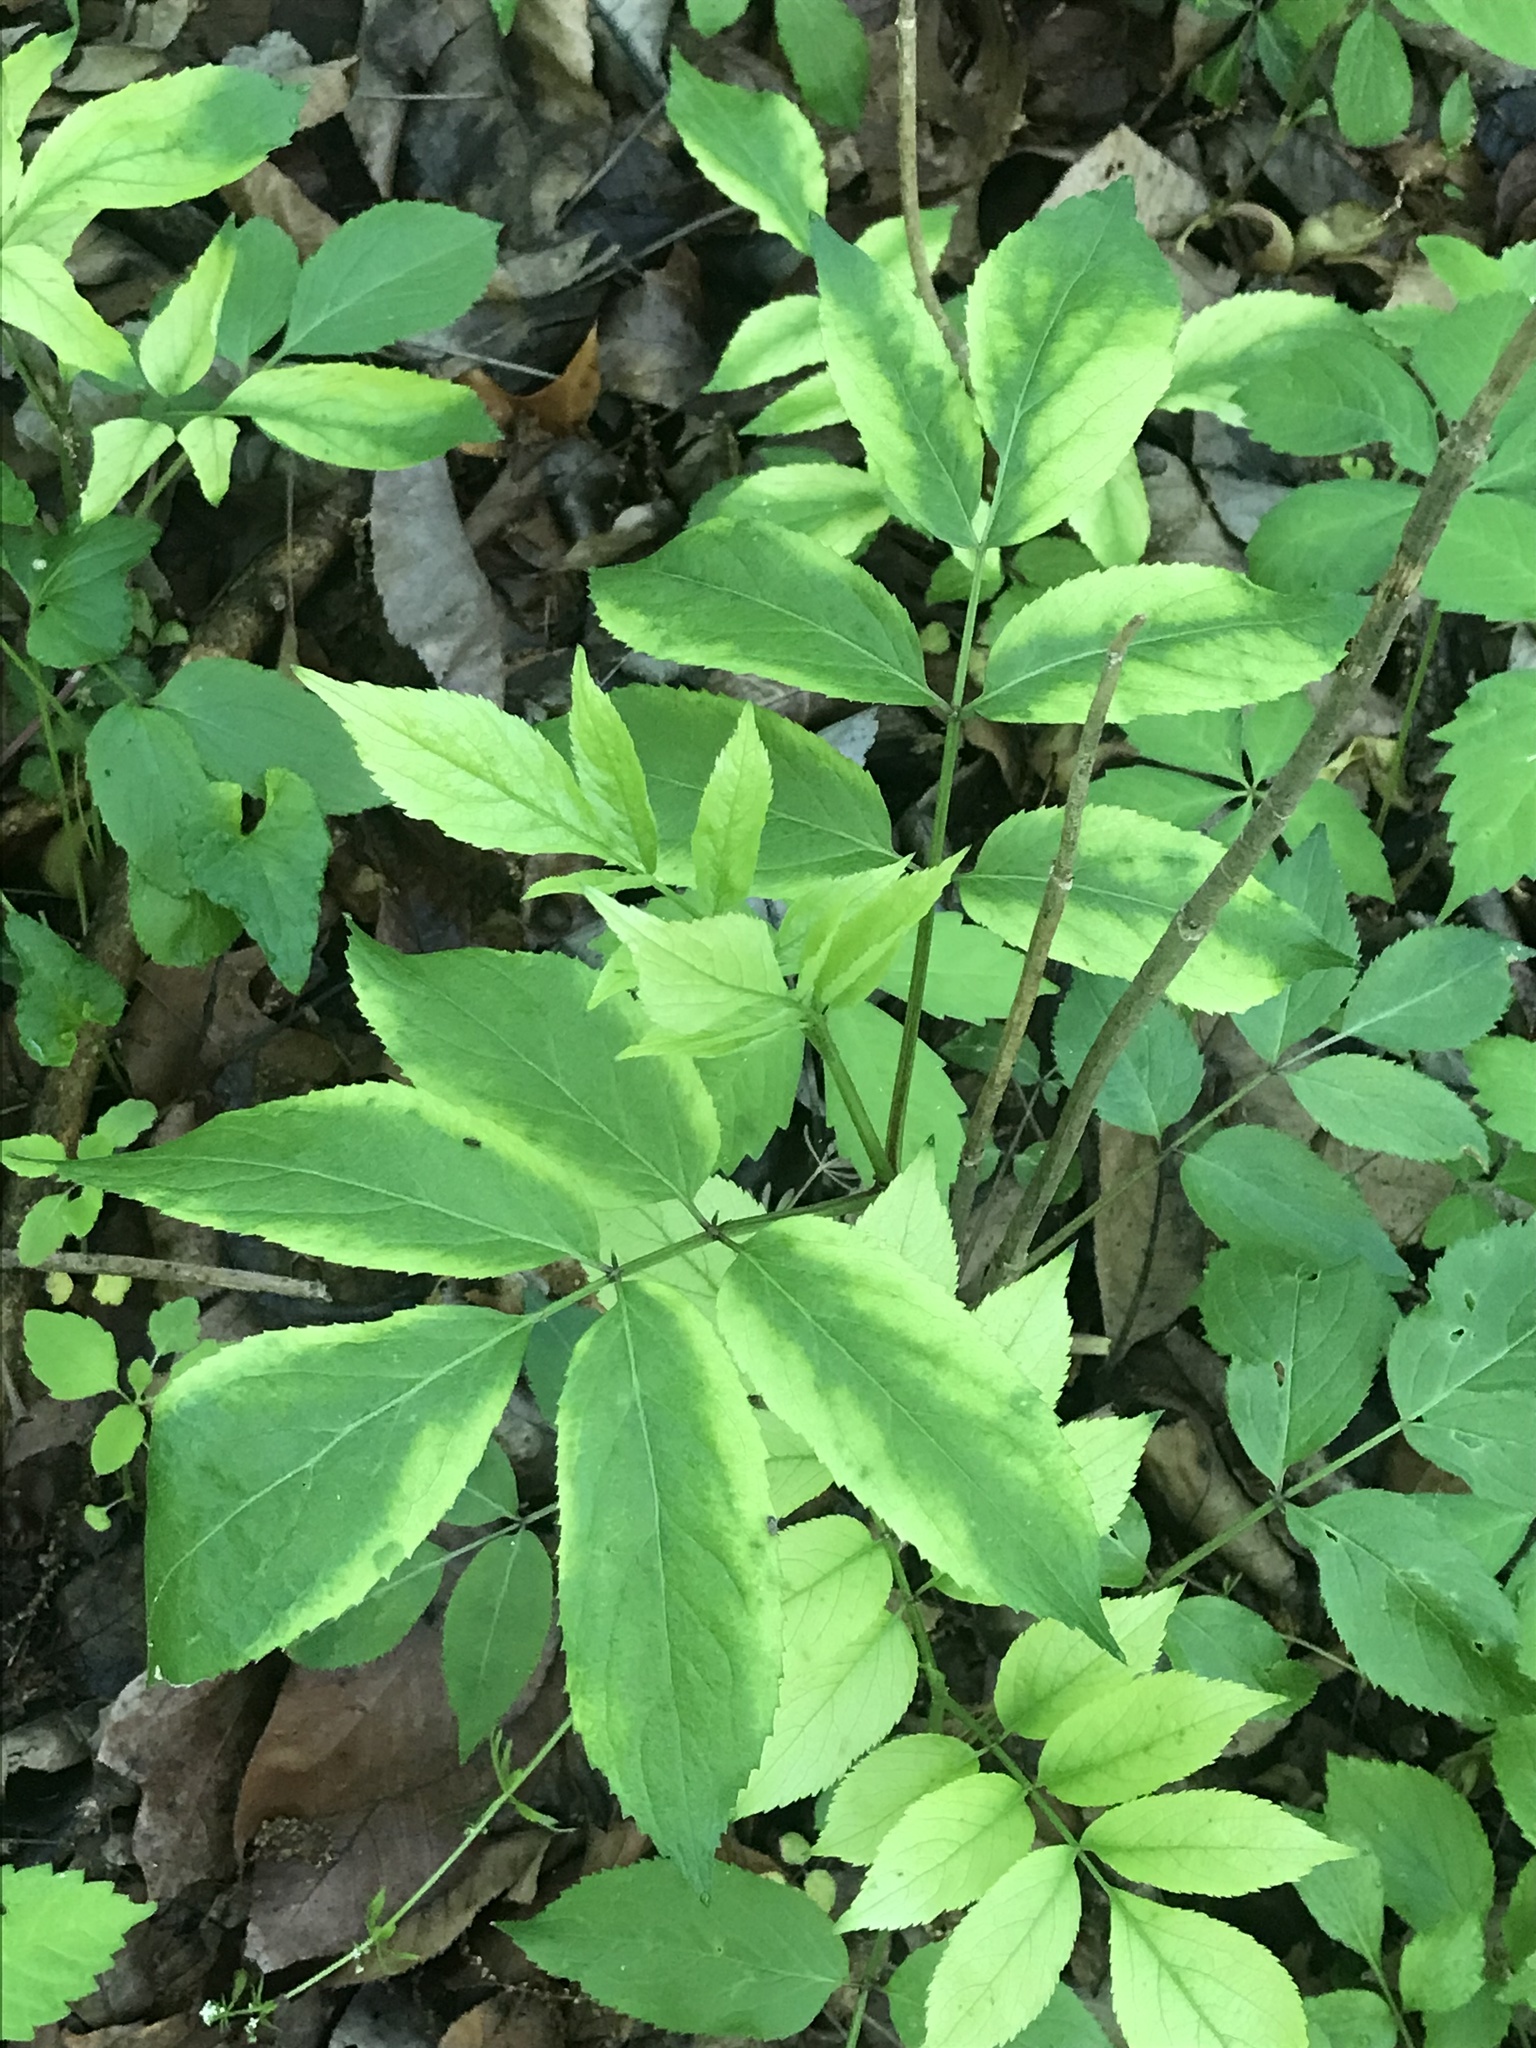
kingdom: Plantae
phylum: Tracheophyta
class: Magnoliopsida
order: Dipsacales
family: Viburnaceae
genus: Sambucus
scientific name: Sambucus canadensis
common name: American elder
